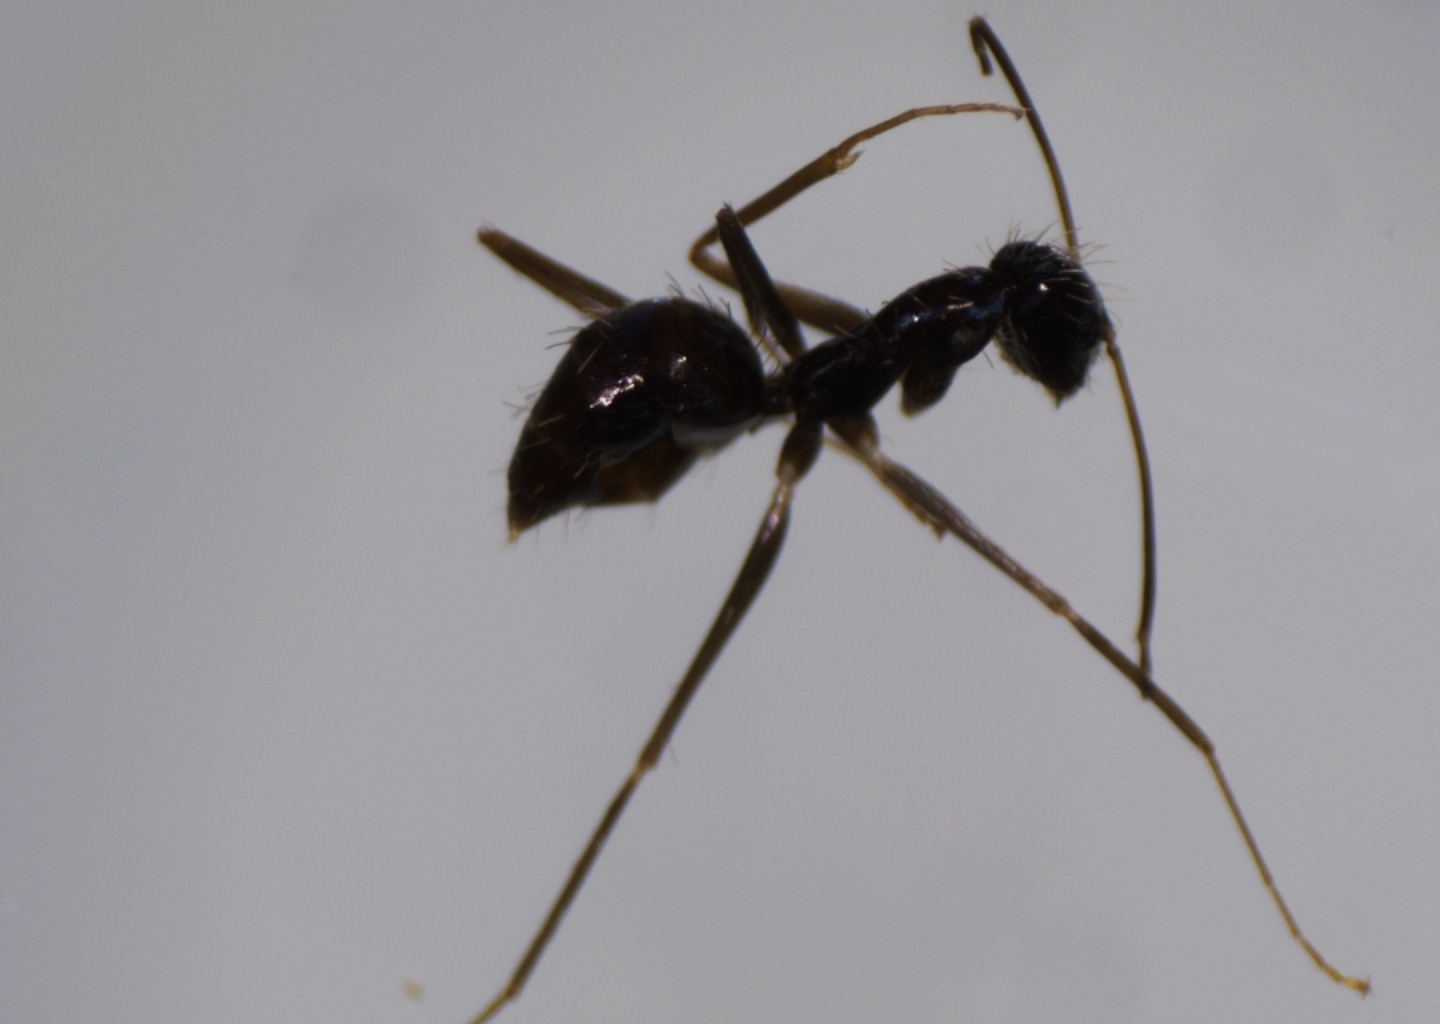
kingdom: Animalia
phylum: Arthropoda
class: Insecta
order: Hymenoptera
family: Formicidae
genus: Paratrechina
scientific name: Paratrechina longicornis
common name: Longhorned crazy ant
